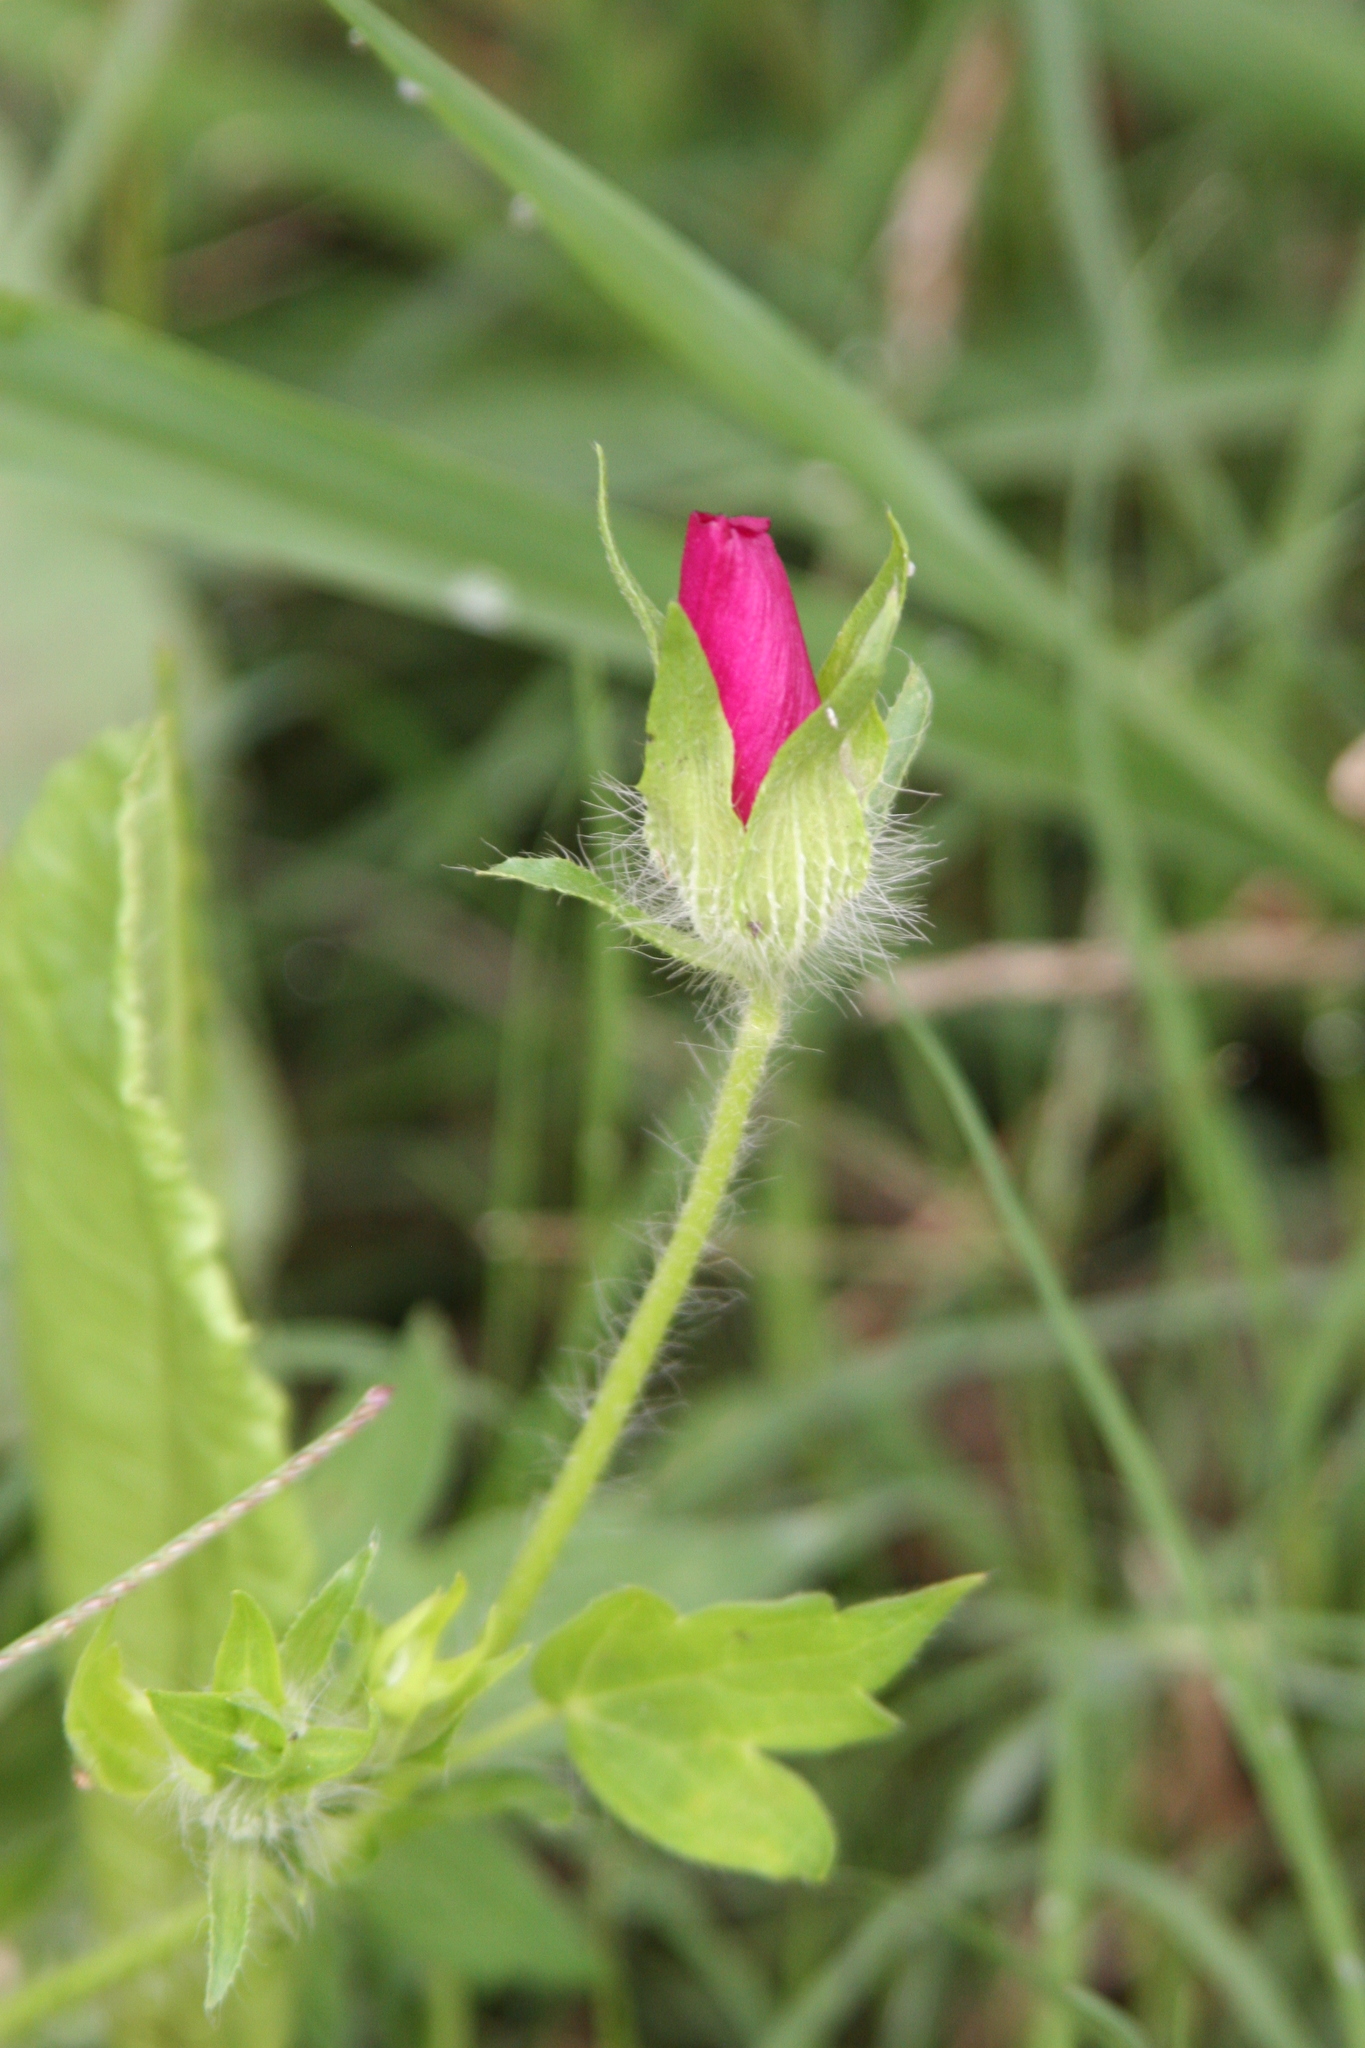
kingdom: Plantae
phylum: Tracheophyta
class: Magnoliopsida
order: Malvales
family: Malvaceae
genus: Callirhoe
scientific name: Callirhoe involucrata
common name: Purple poppy-mallow
